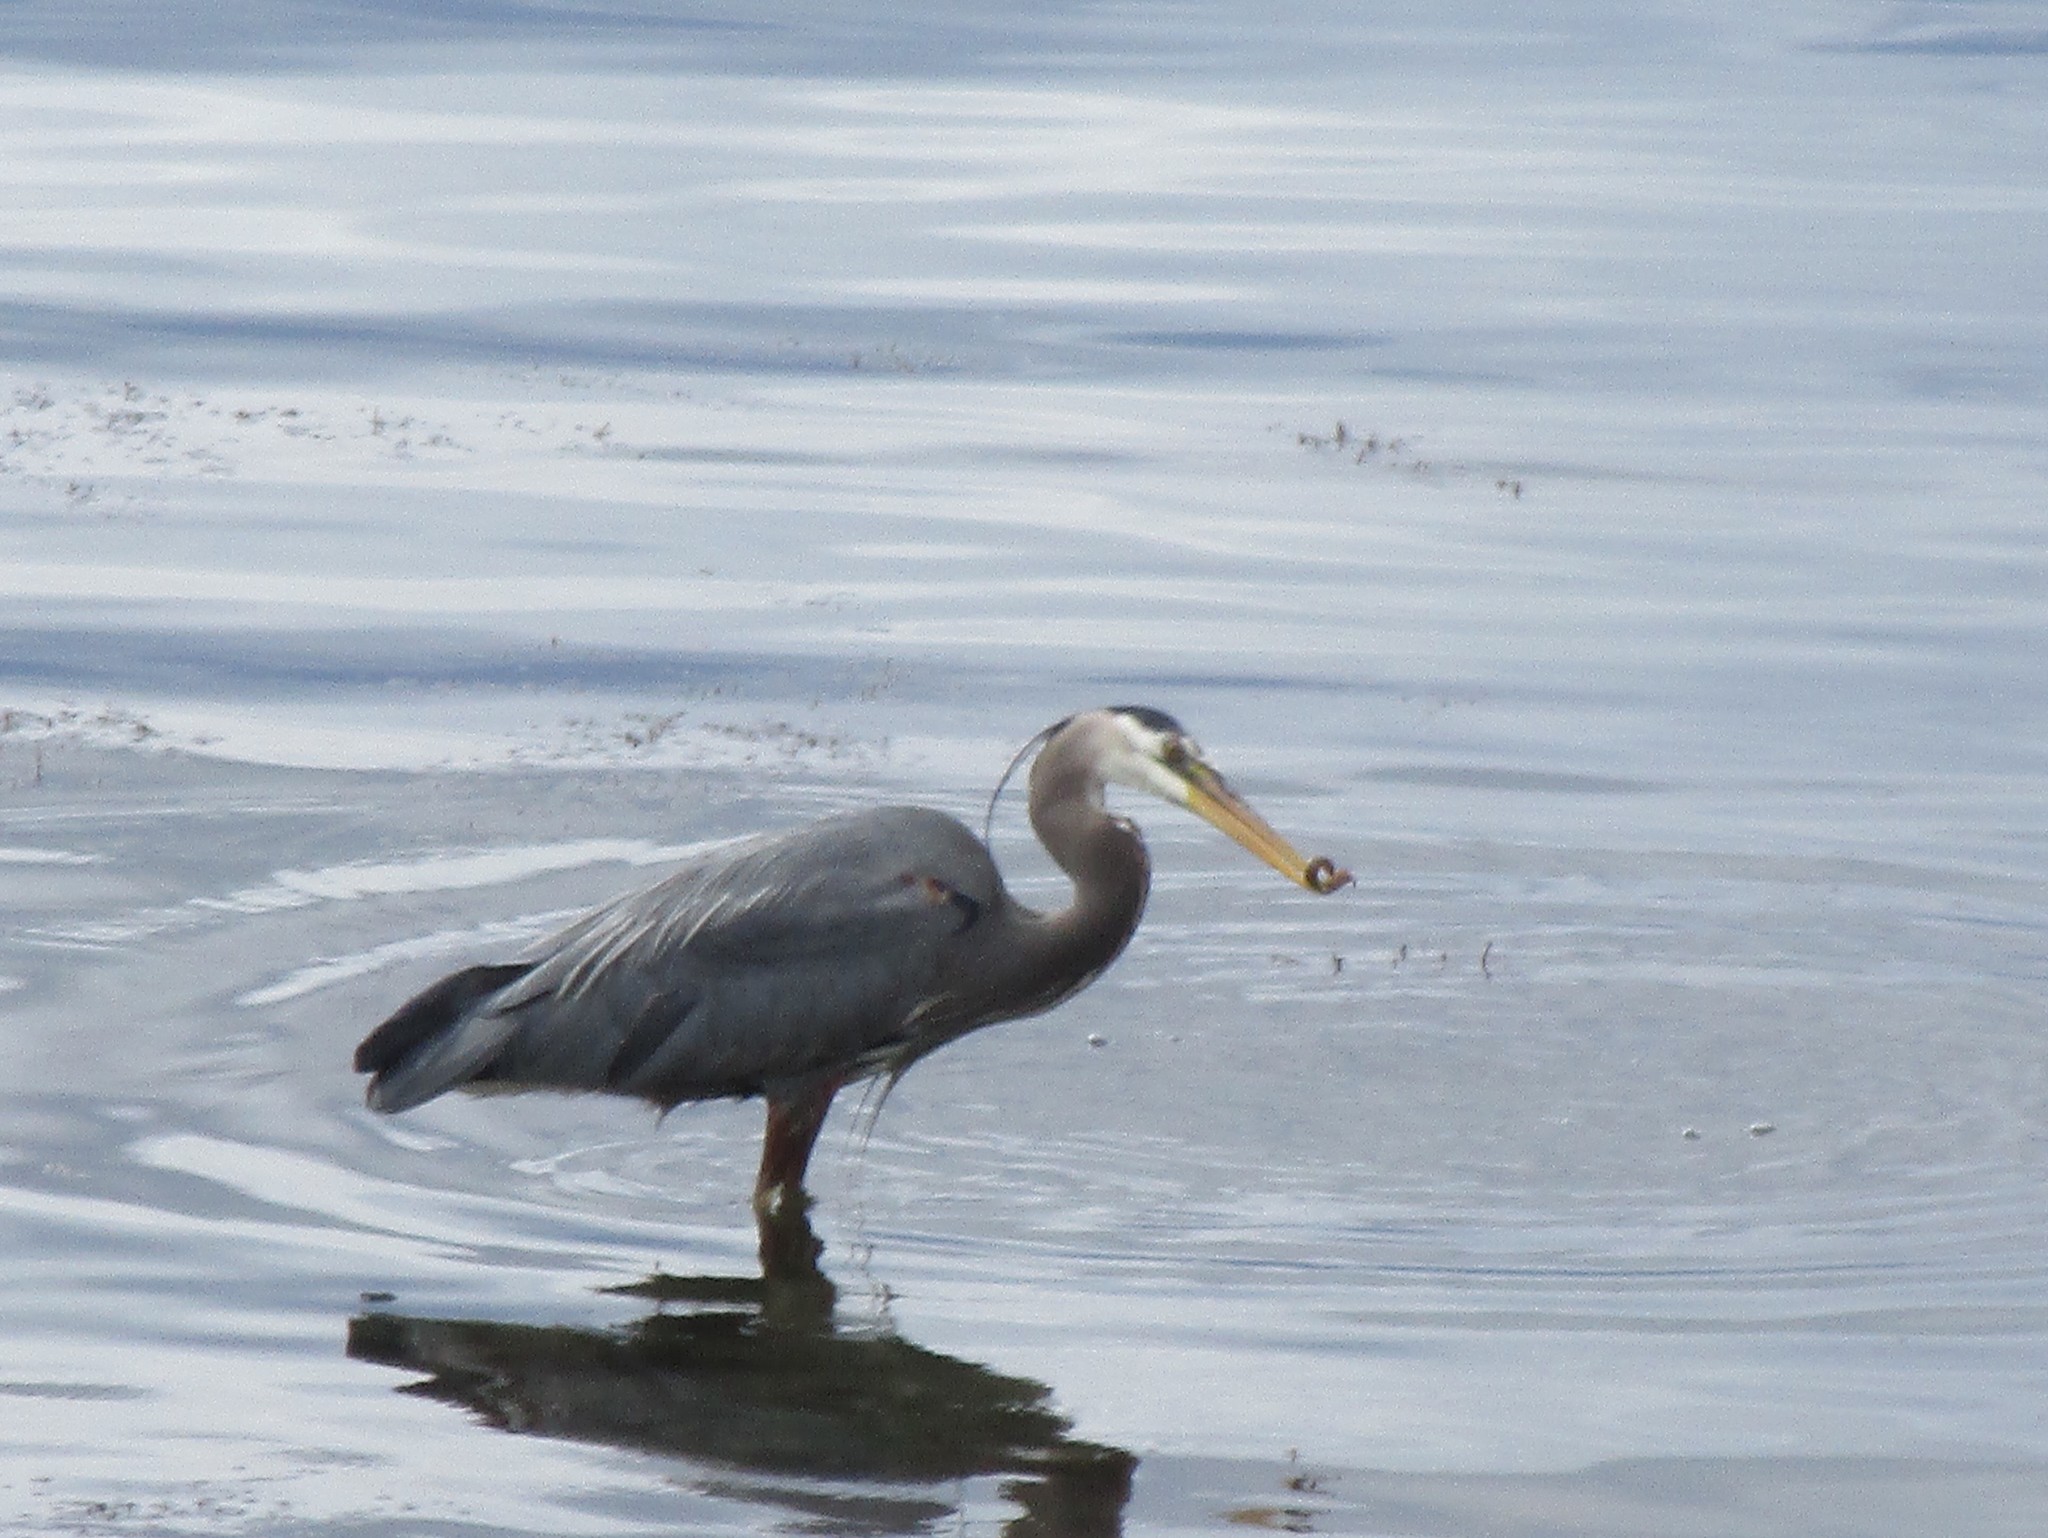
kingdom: Animalia
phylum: Chordata
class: Aves
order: Pelecaniformes
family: Ardeidae
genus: Ardea
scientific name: Ardea herodias
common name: Great blue heron
